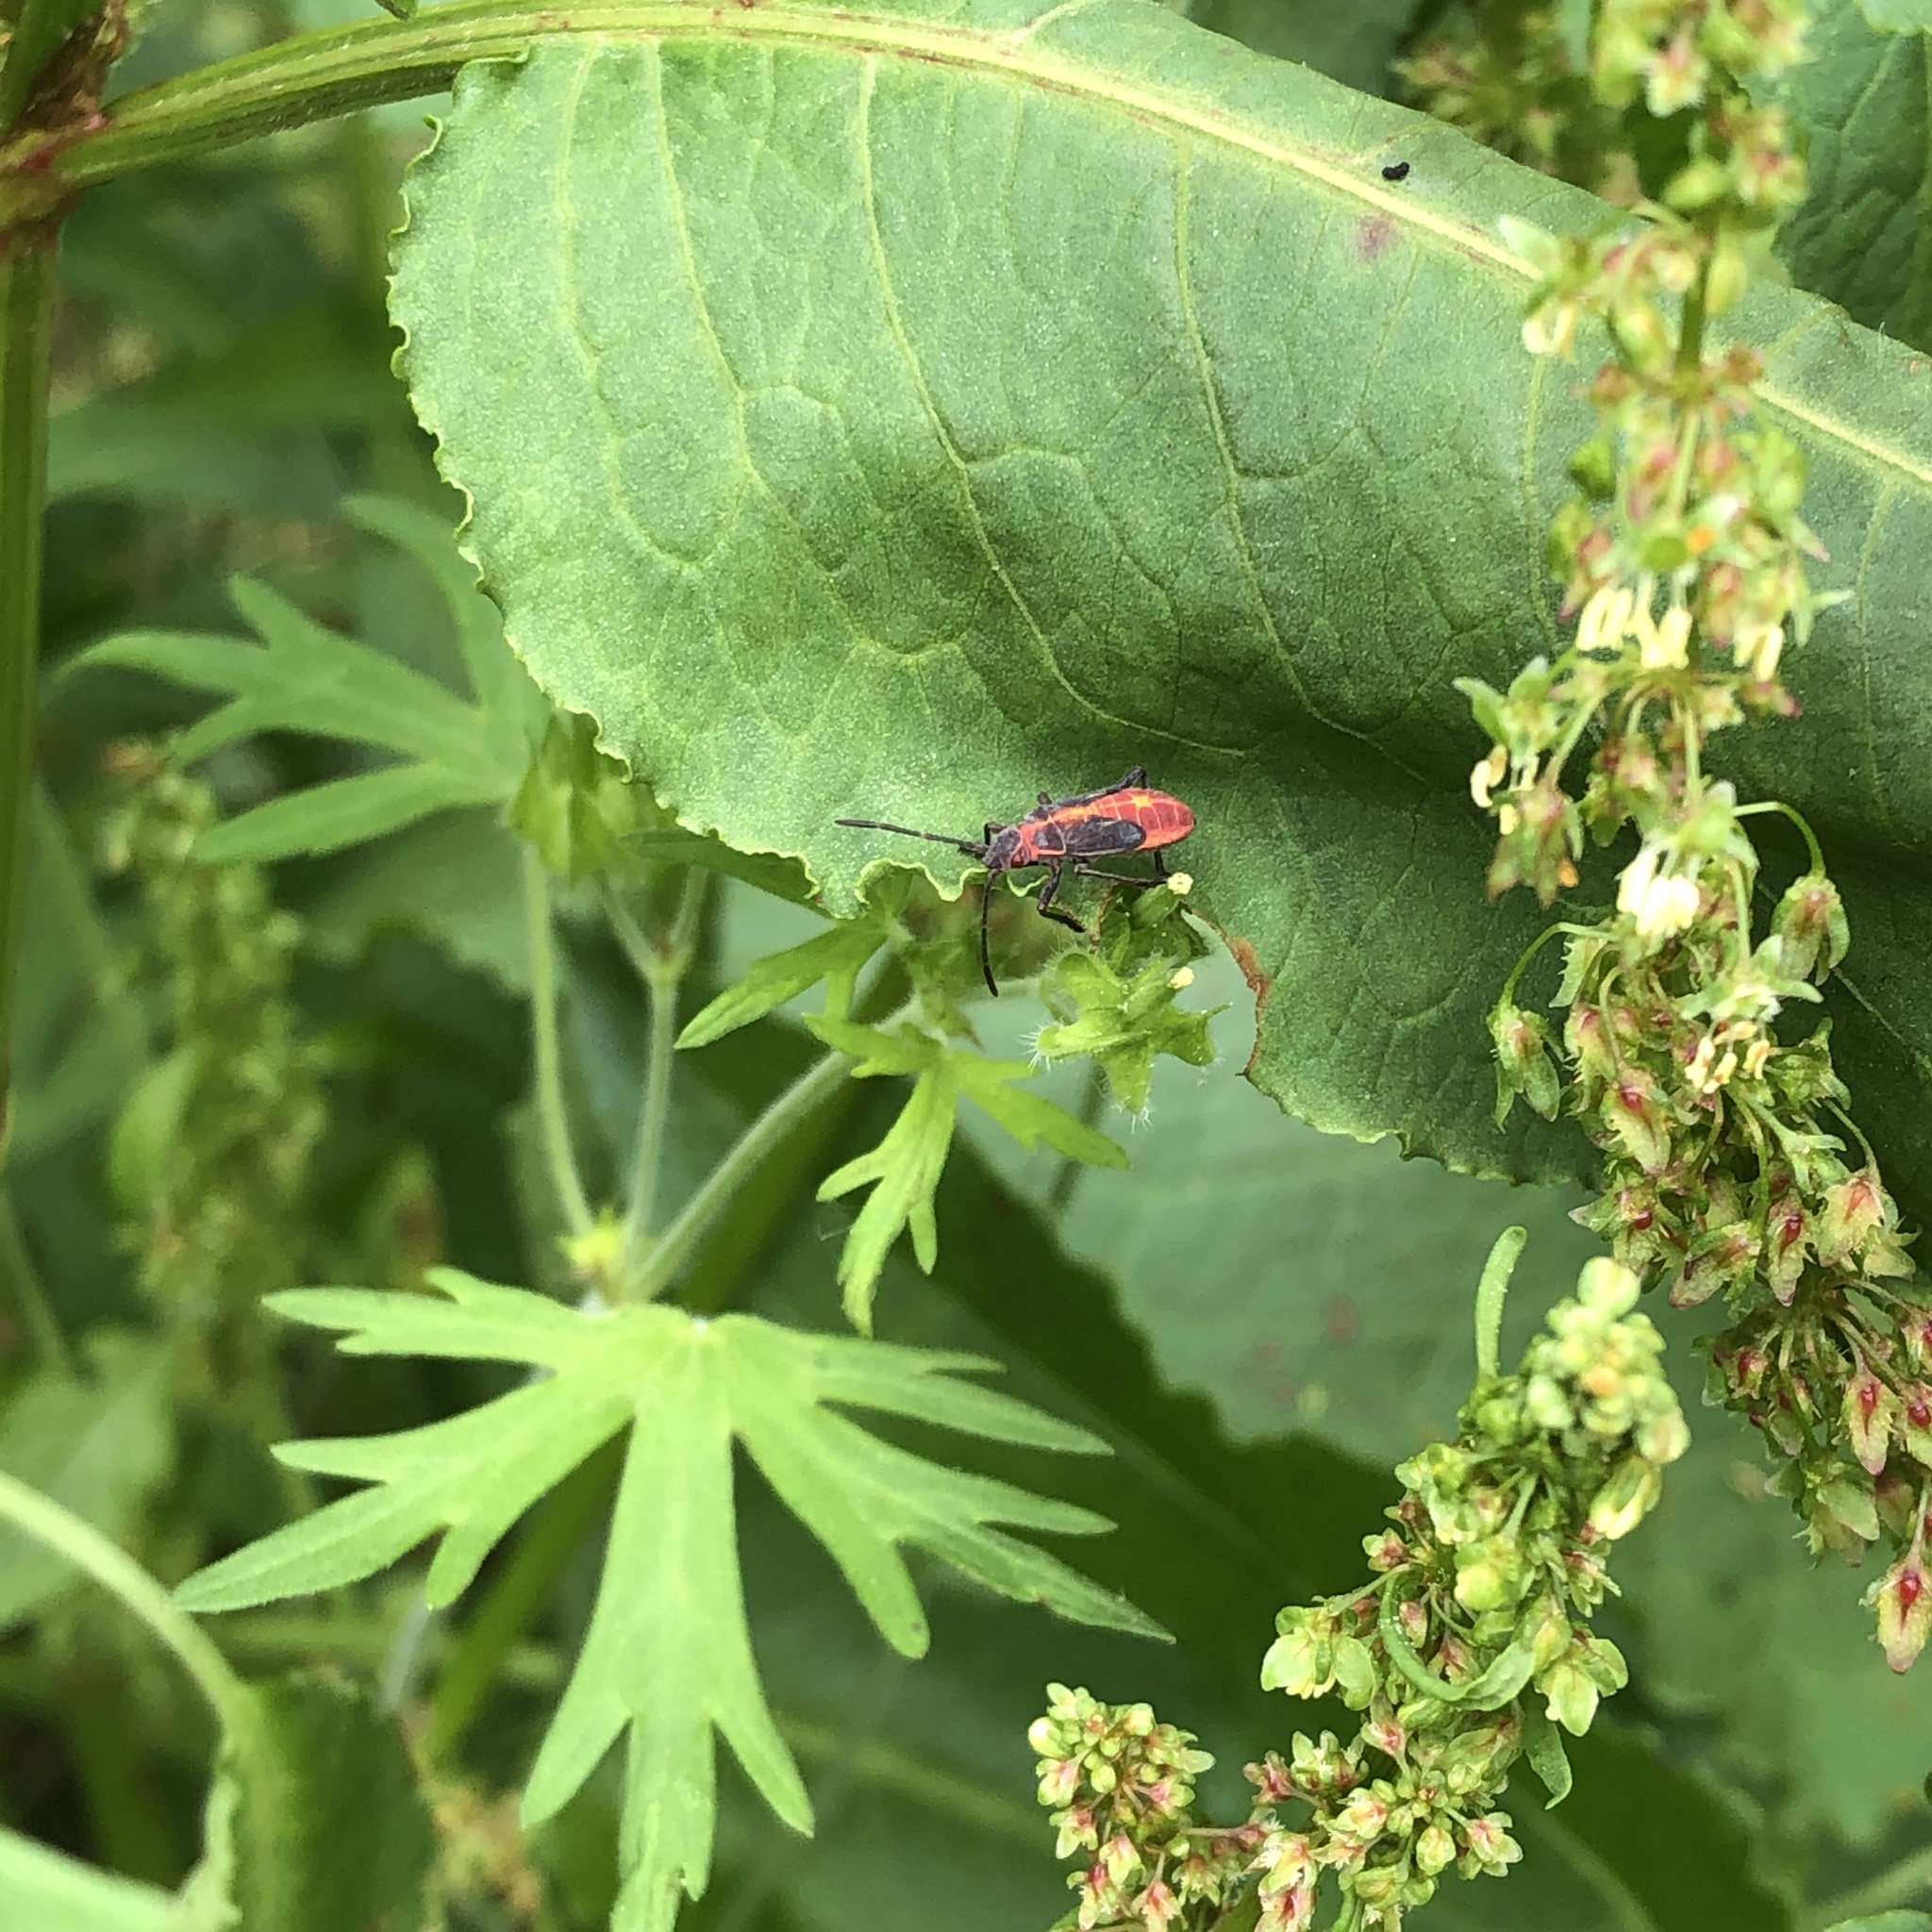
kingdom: Animalia
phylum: Arthropoda
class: Insecta
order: Hemiptera
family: Rhopalidae
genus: Boisea
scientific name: Boisea trivittata
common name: Boxelder bug
